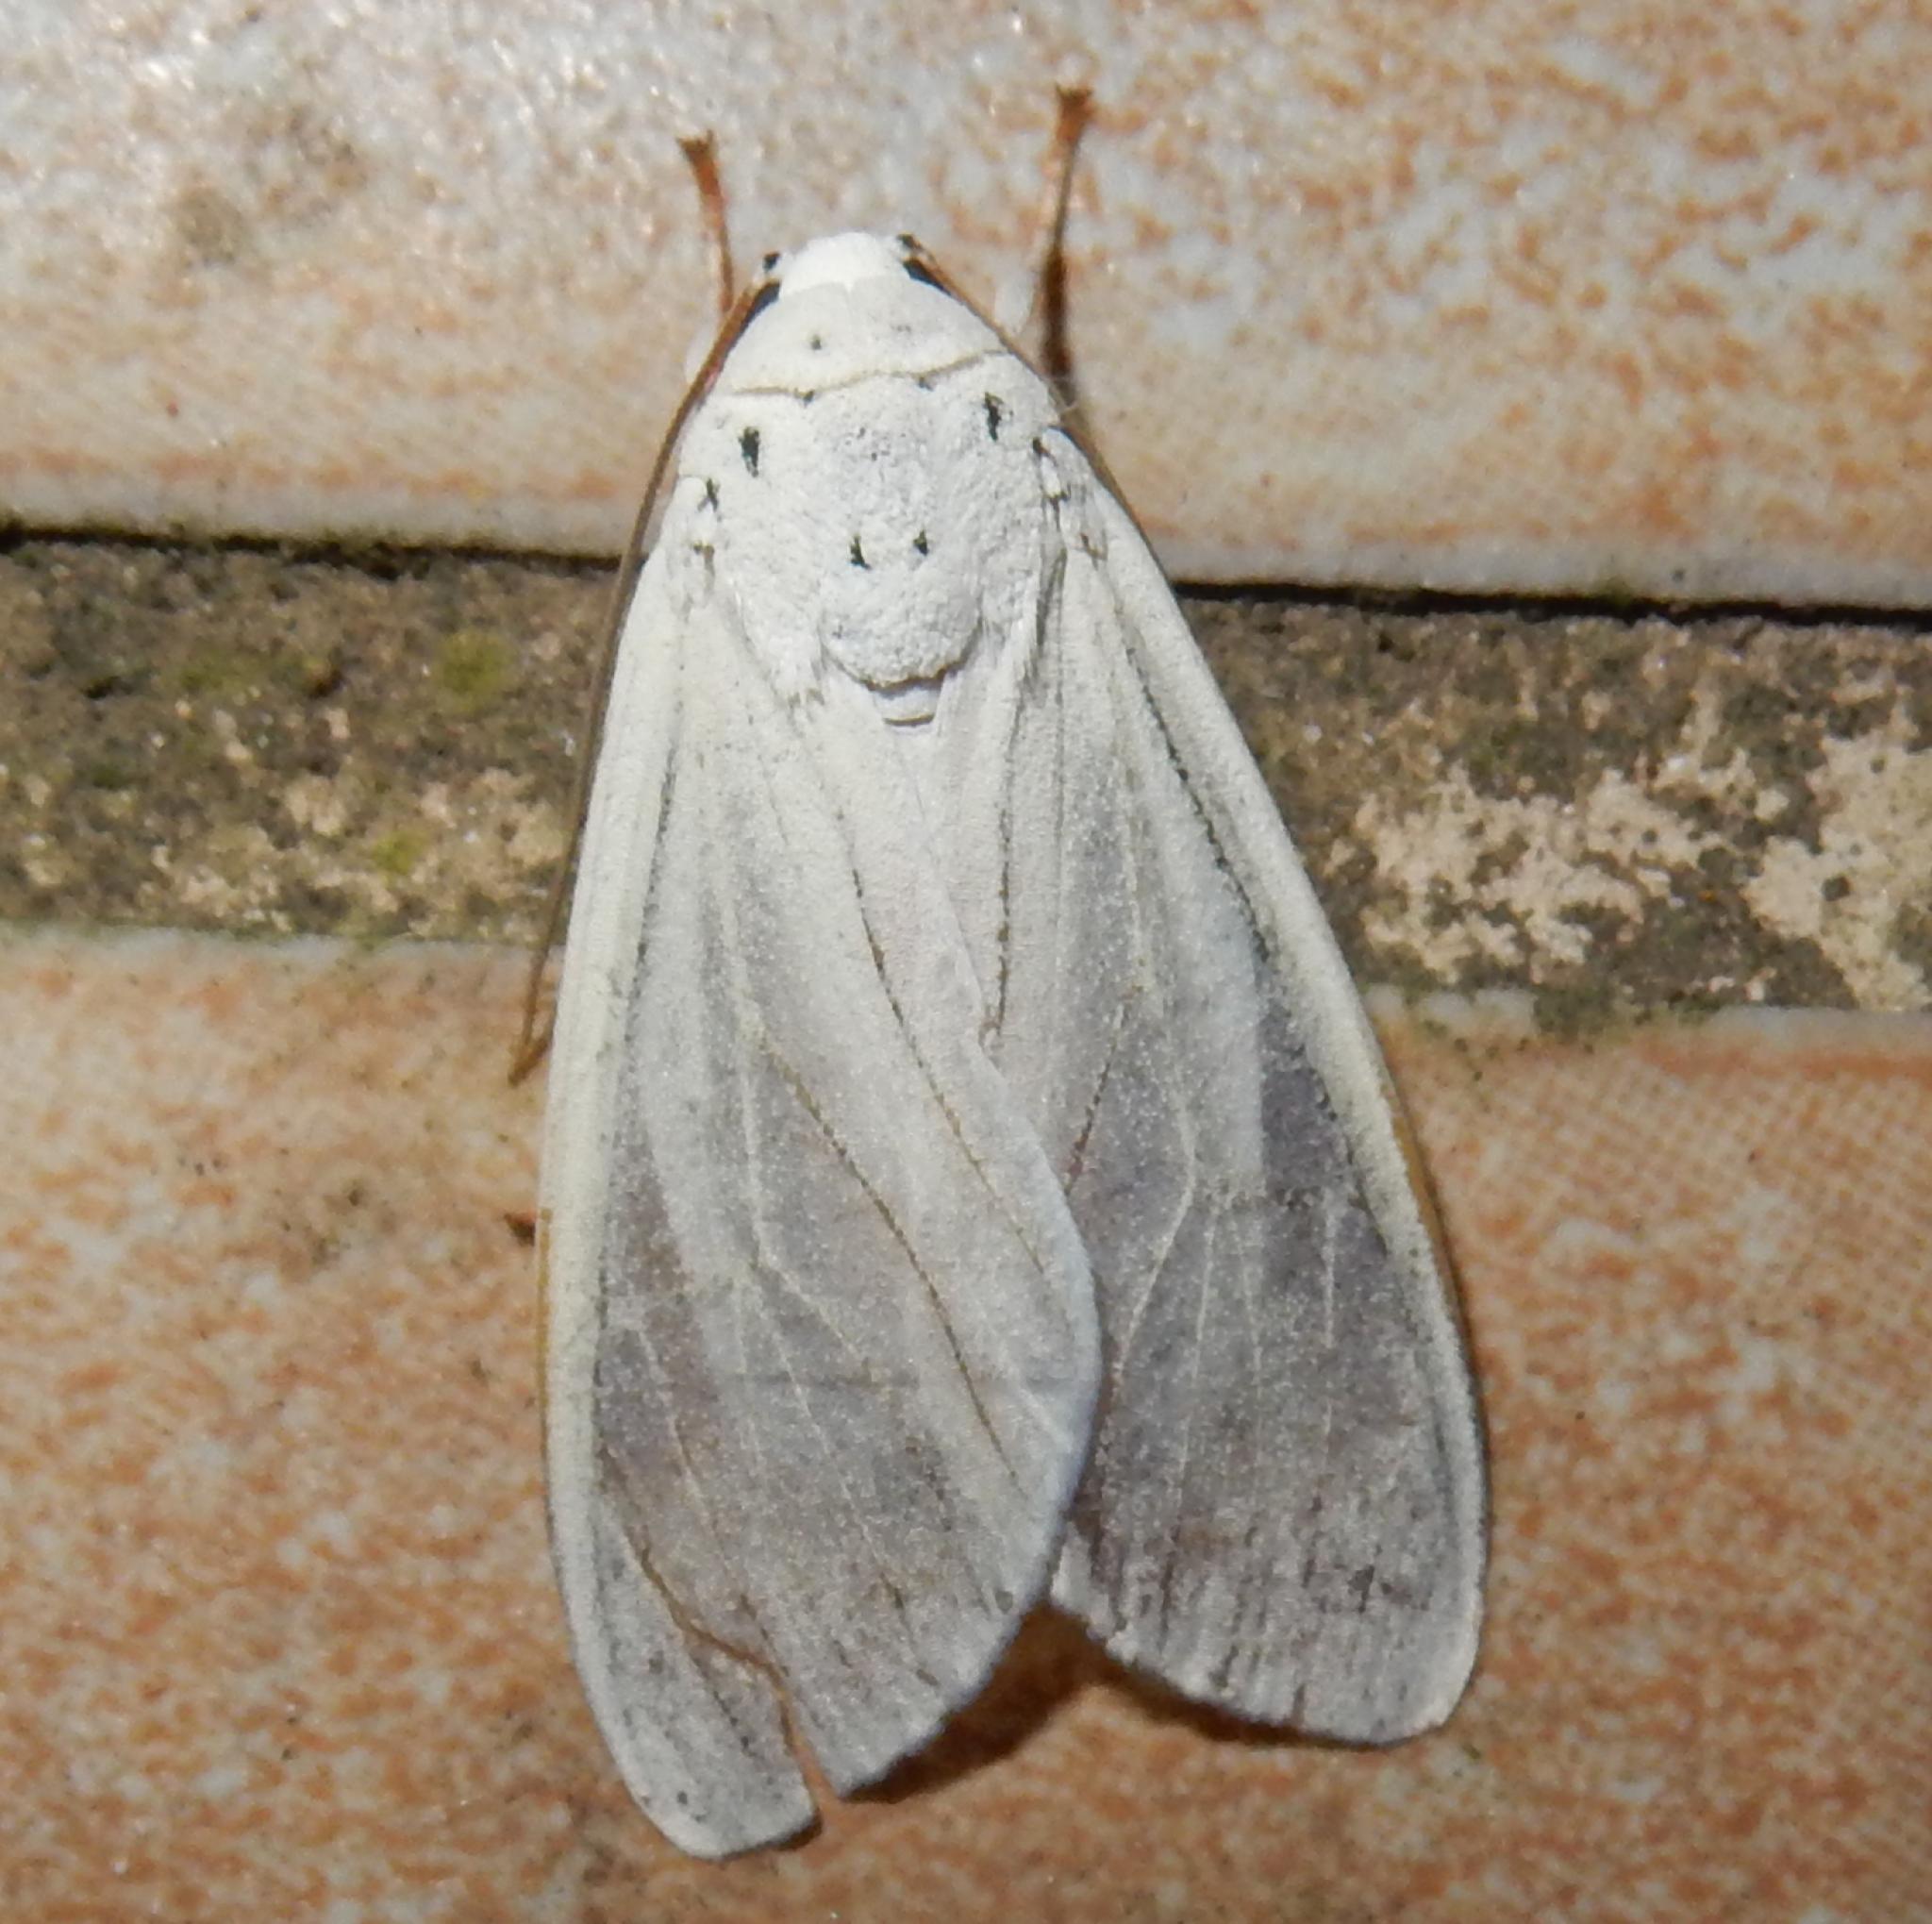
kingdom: Animalia
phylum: Arthropoda
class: Insecta
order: Lepidoptera
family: Erebidae
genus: Amerila
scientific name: Amerila lupia
